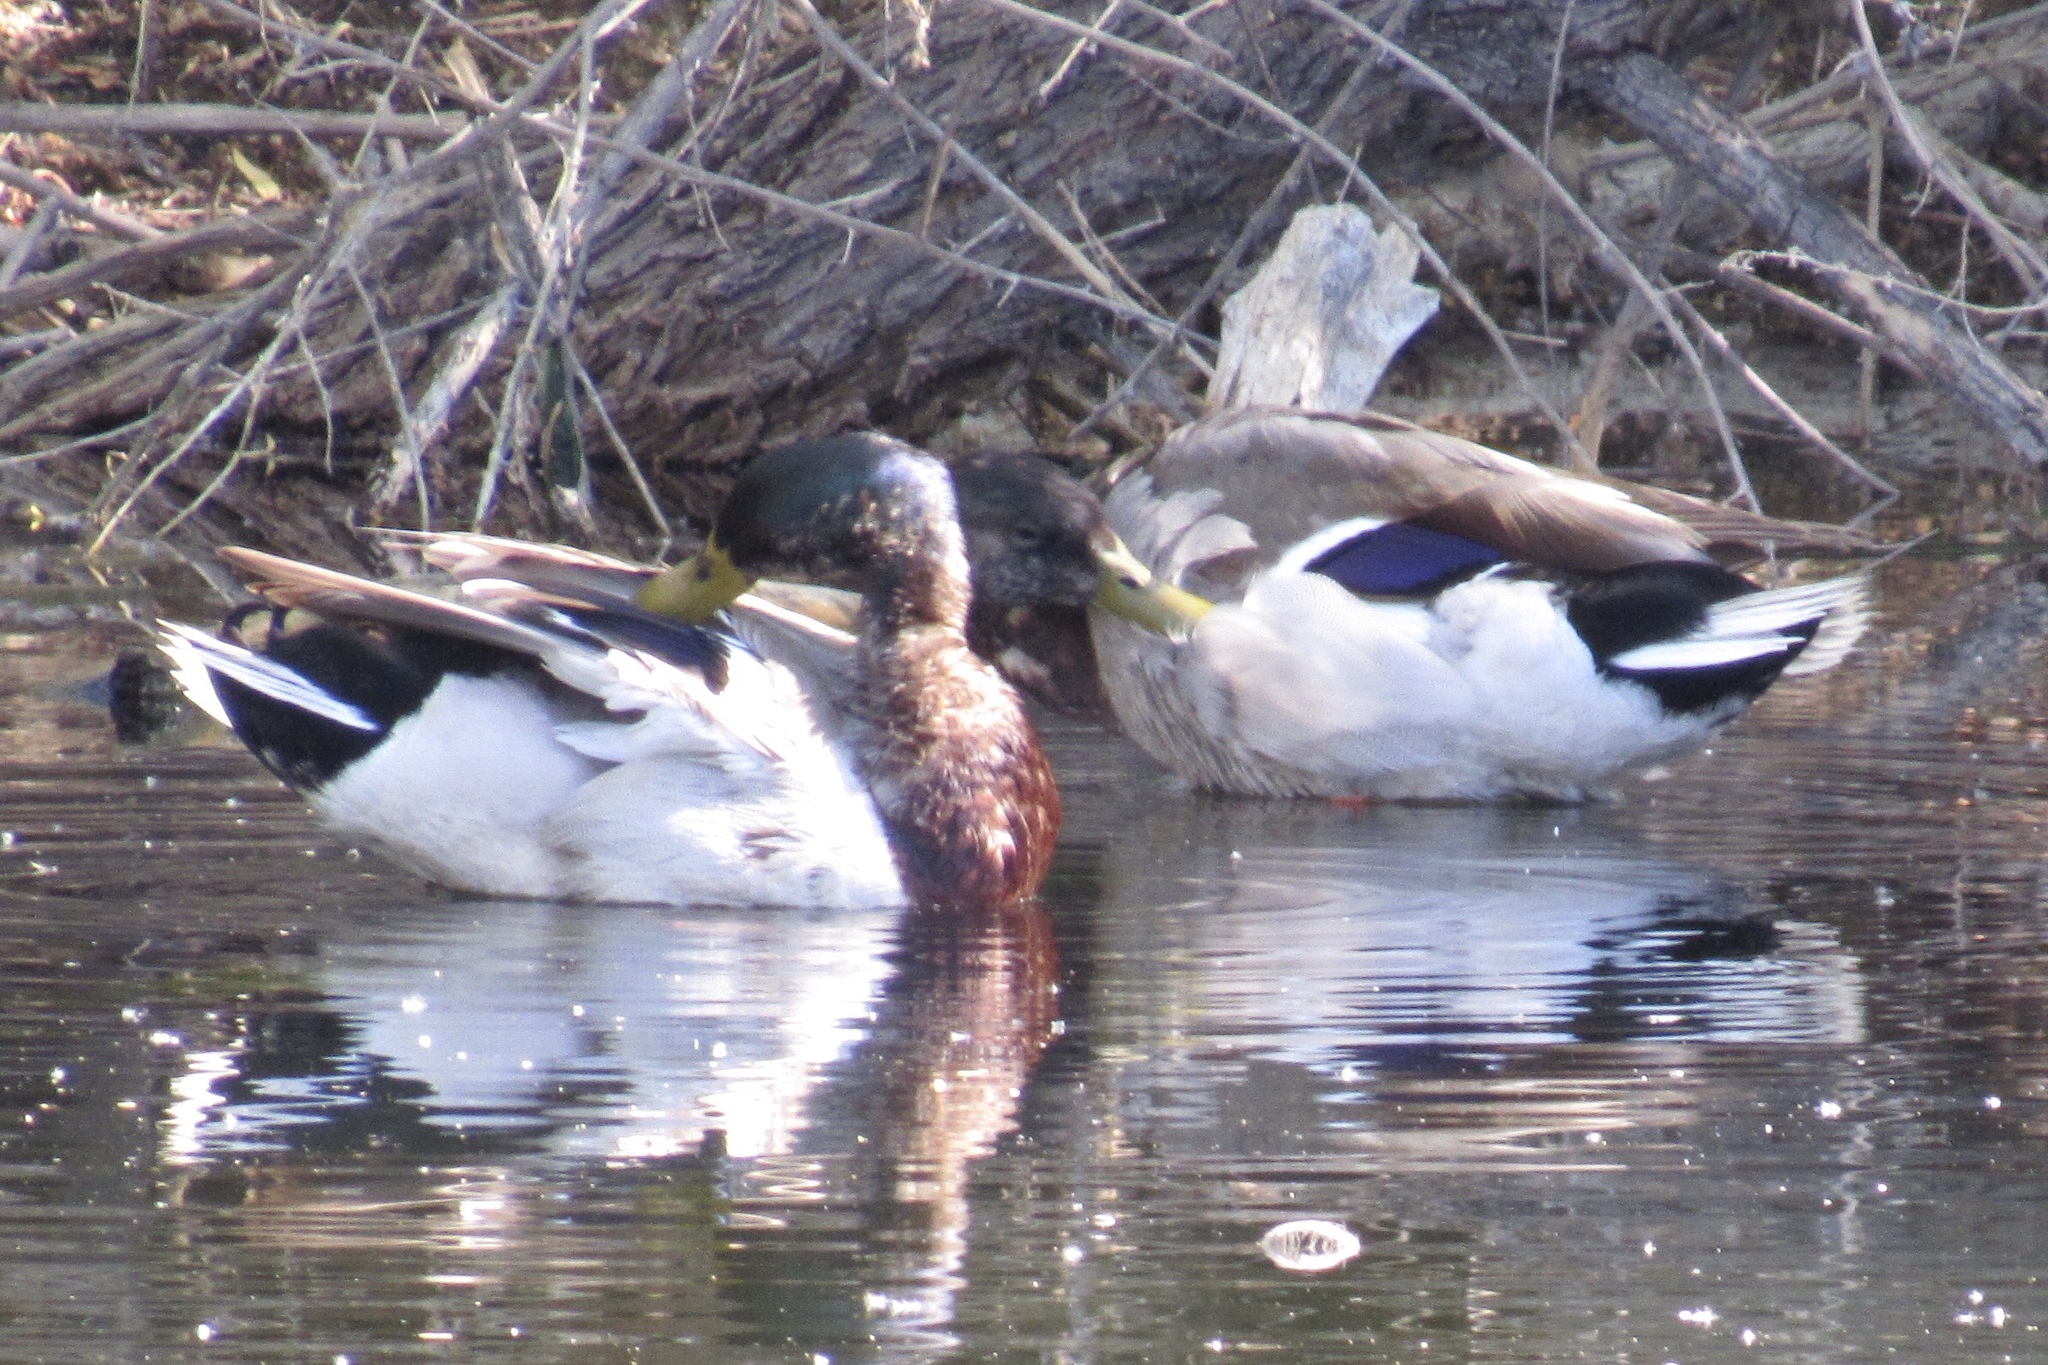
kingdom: Animalia
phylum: Chordata
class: Aves
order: Anseriformes
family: Anatidae
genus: Anas
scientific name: Anas platyrhynchos
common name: Mallard
